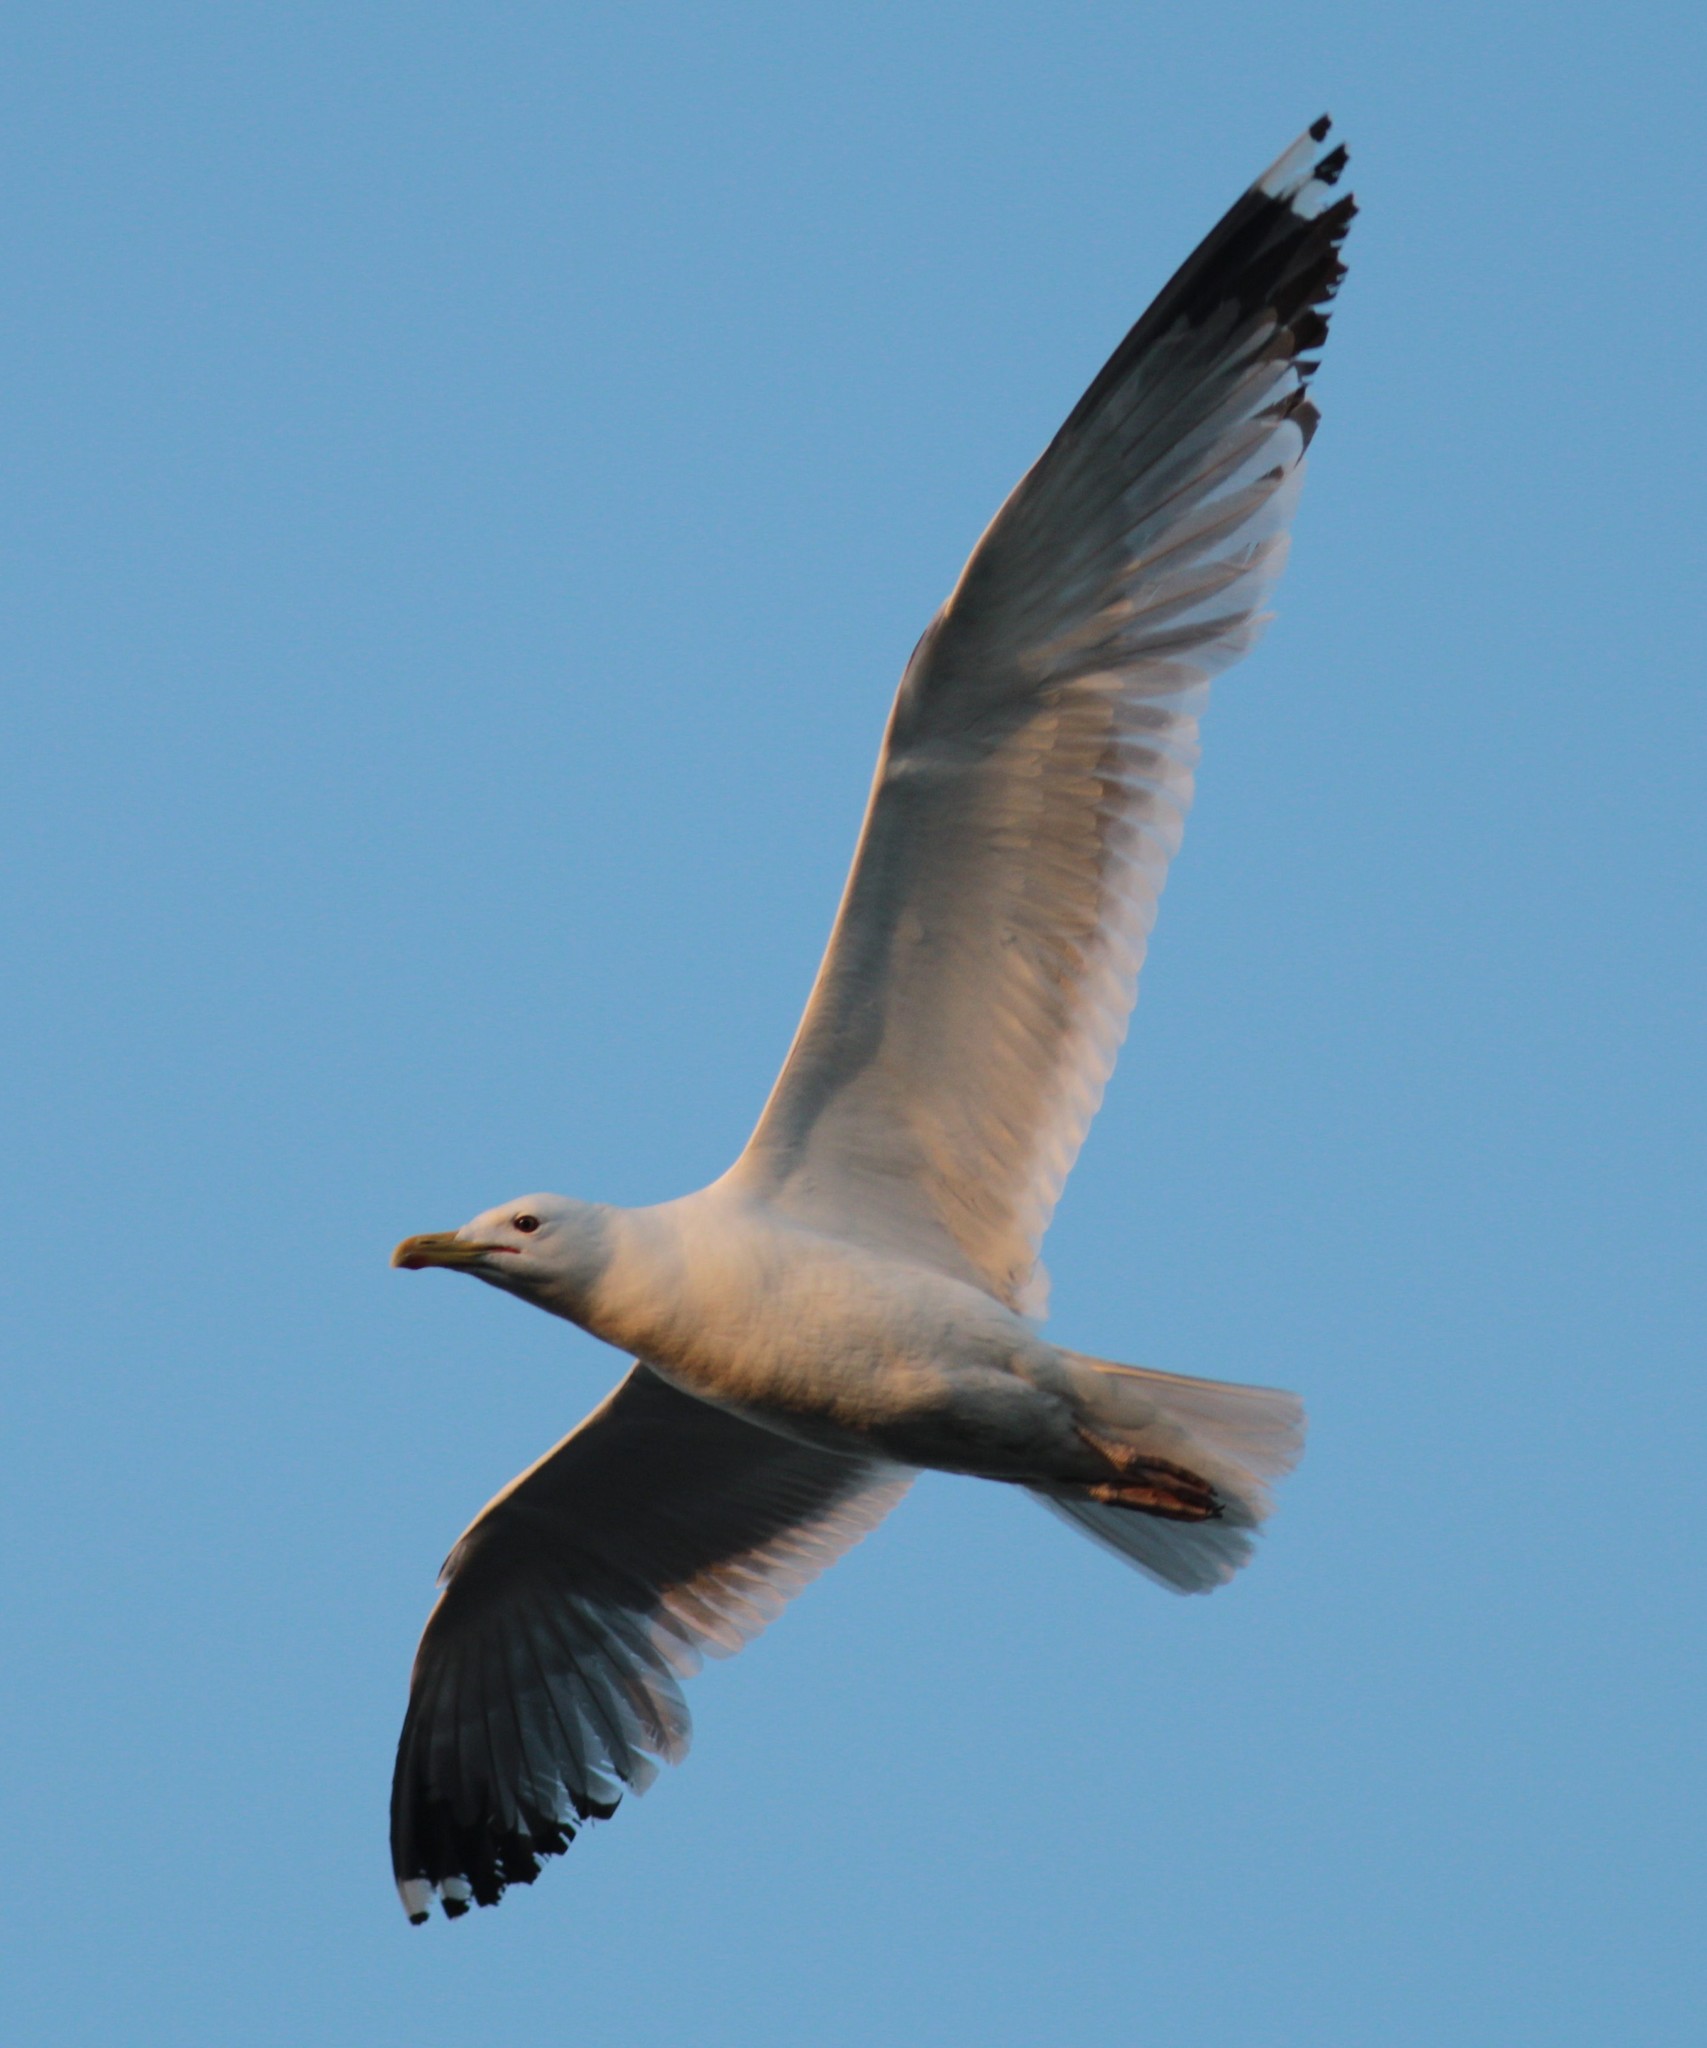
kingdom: Animalia
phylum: Chordata
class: Aves
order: Charadriiformes
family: Laridae
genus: Larus
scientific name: Larus cachinnans
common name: Caspian gull
